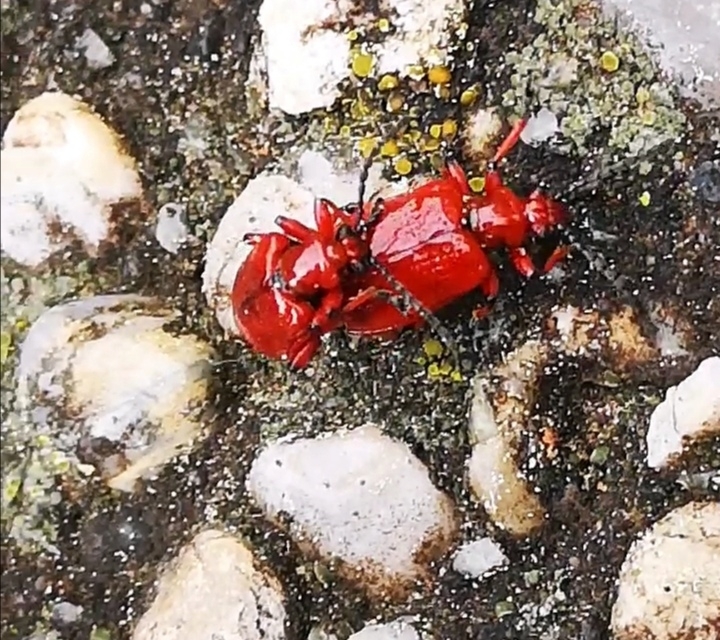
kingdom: Animalia
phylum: Arthropoda
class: Insecta
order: Coleoptera
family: Chrysomelidae
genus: Lilioceris
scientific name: Lilioceris merdigera
